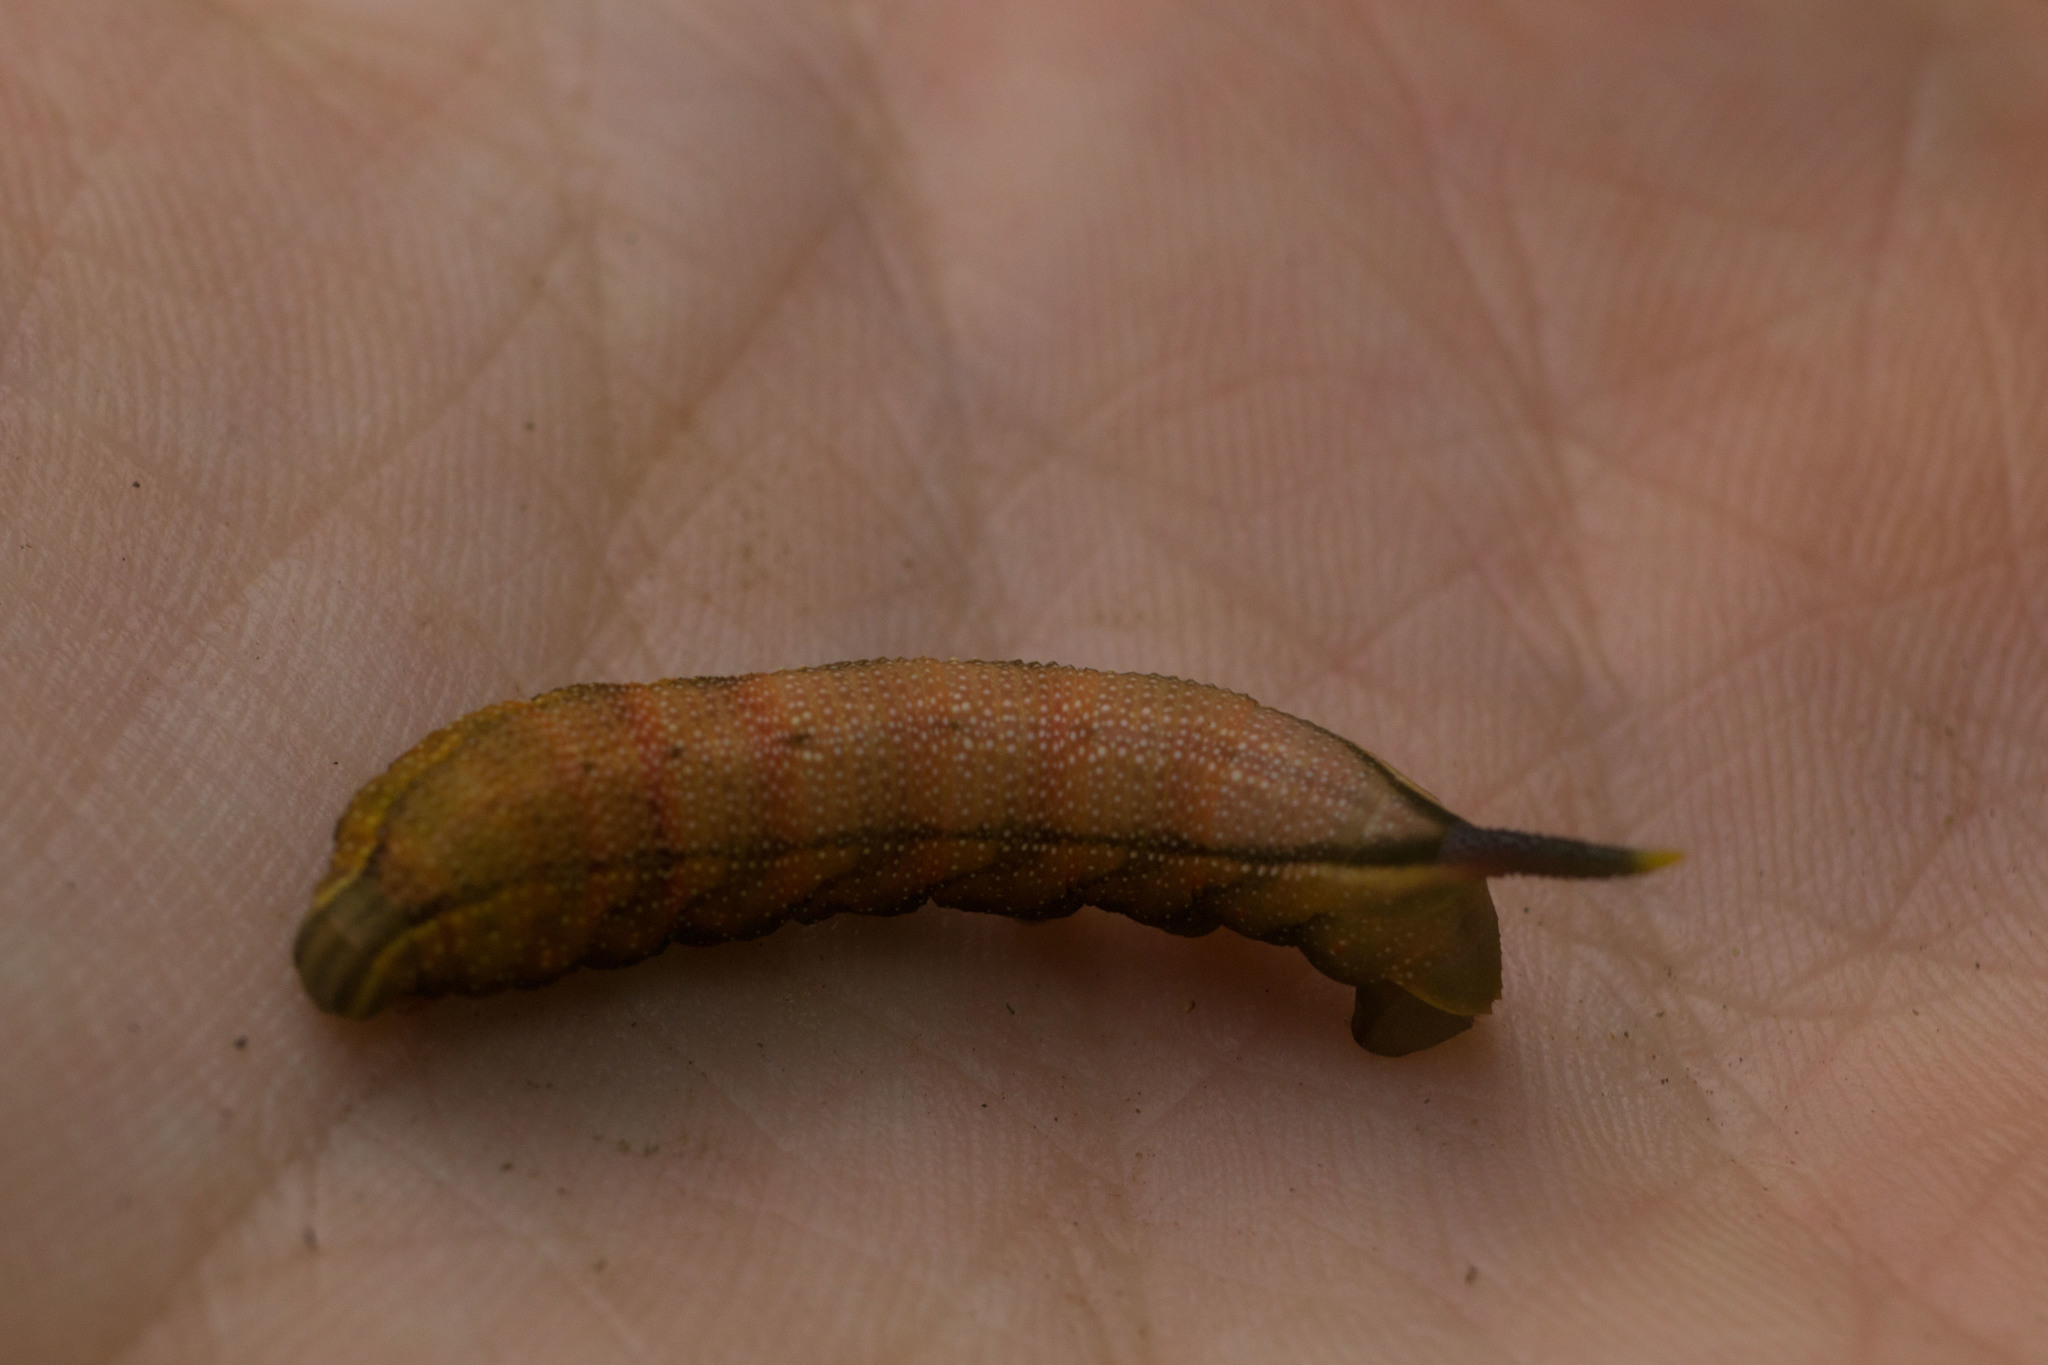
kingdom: Animalia
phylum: Arthropoda
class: Insecta
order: Lepidoptera
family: Sphingidae
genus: Macroglossum
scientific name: Macroglossum pyrrhosticta
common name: Hummingbird hawk moth
